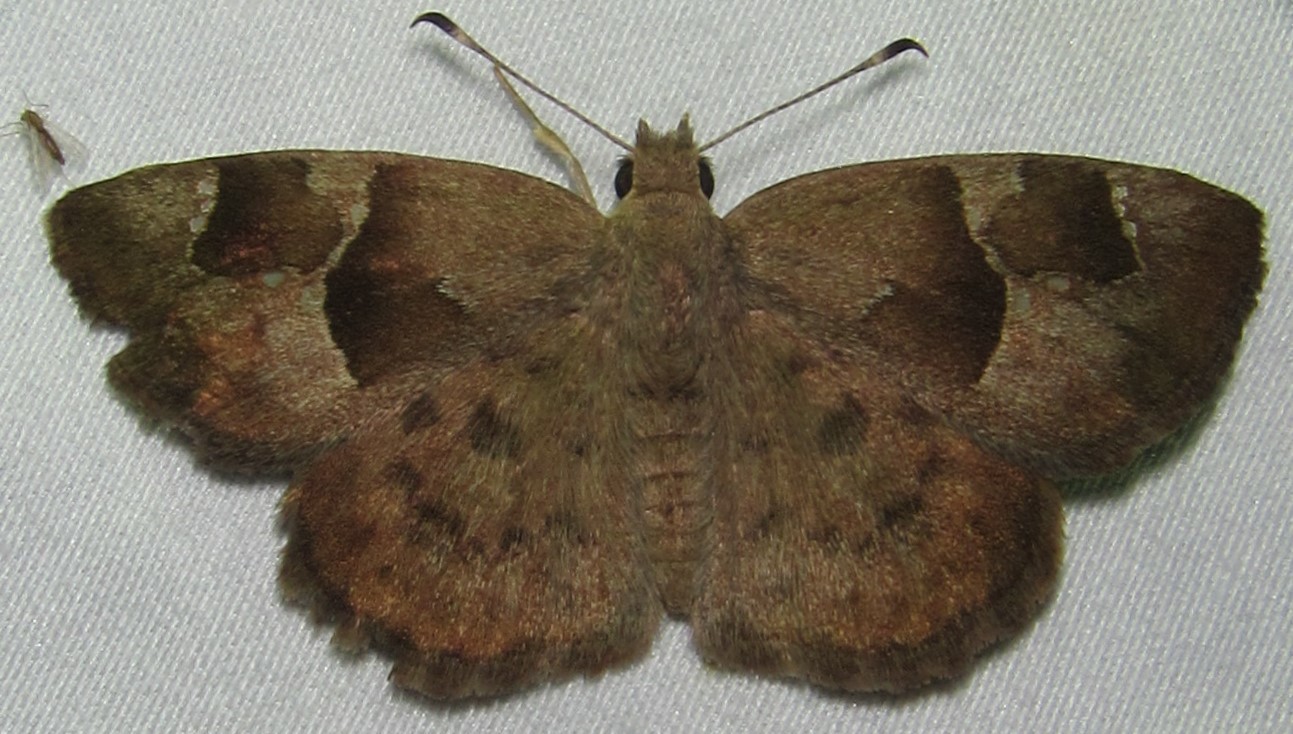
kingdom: Animalia
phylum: Arthropoda
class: Insecta
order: Lepidoptera
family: Hesperiidae
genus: Sarangesa
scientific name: Sarangesa phidyle
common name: Small elfin
